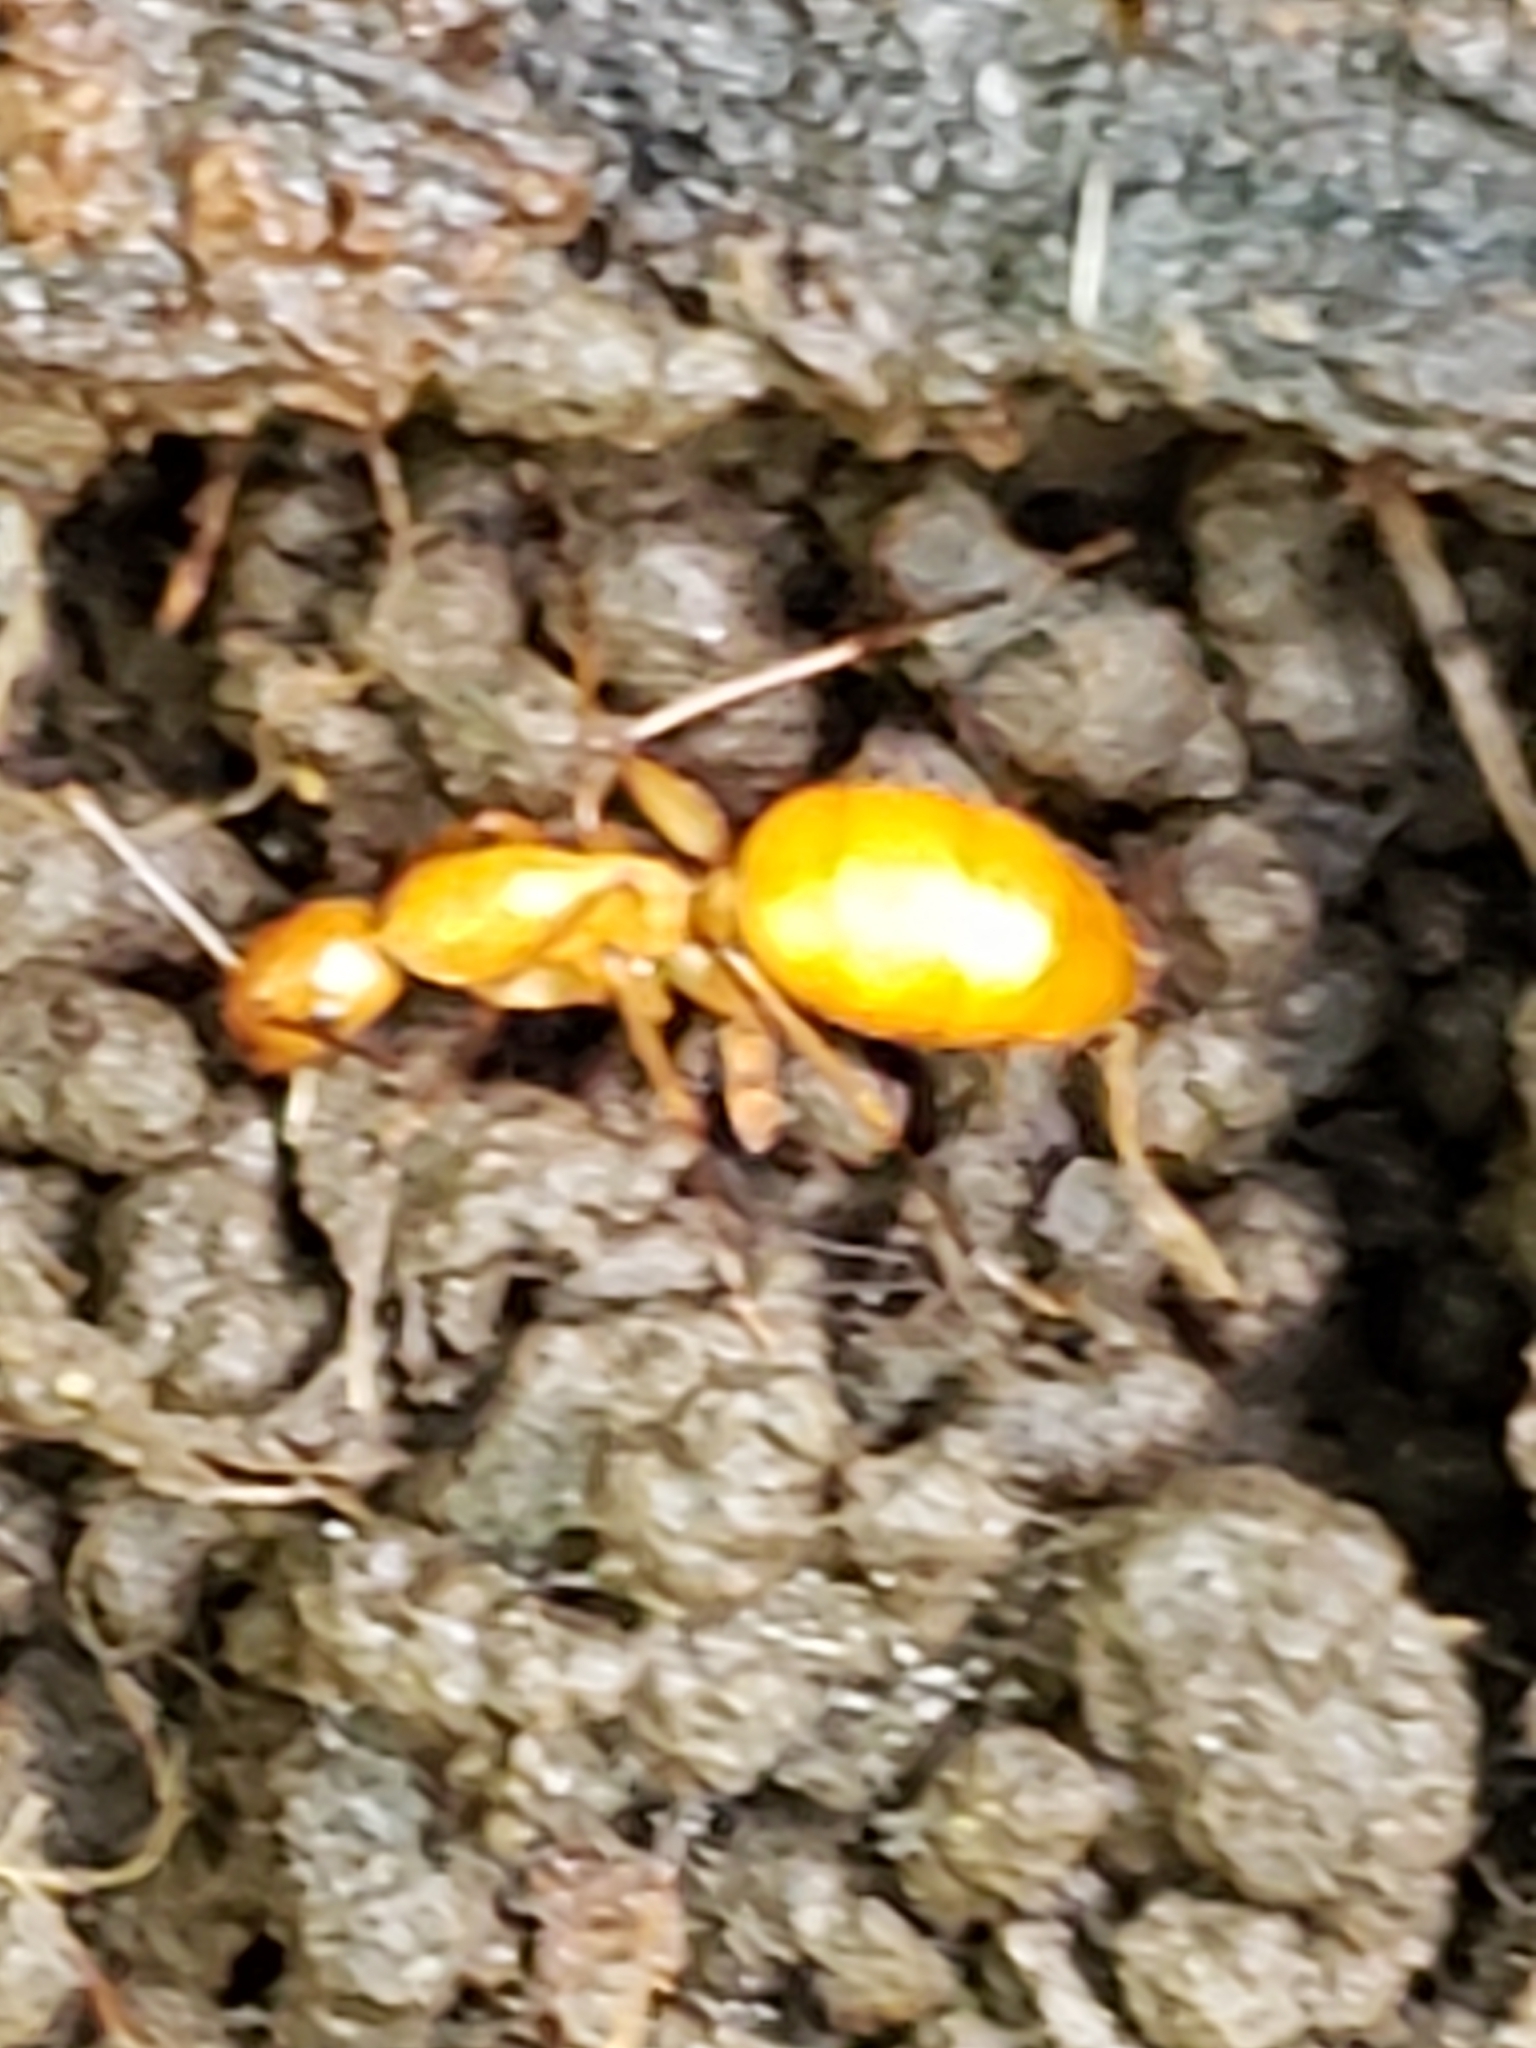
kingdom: Animalia
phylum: Arthropoda
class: Insecta
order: Hymenoptera
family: Formicidae
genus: Camponotus
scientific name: Camponotus castaneus
